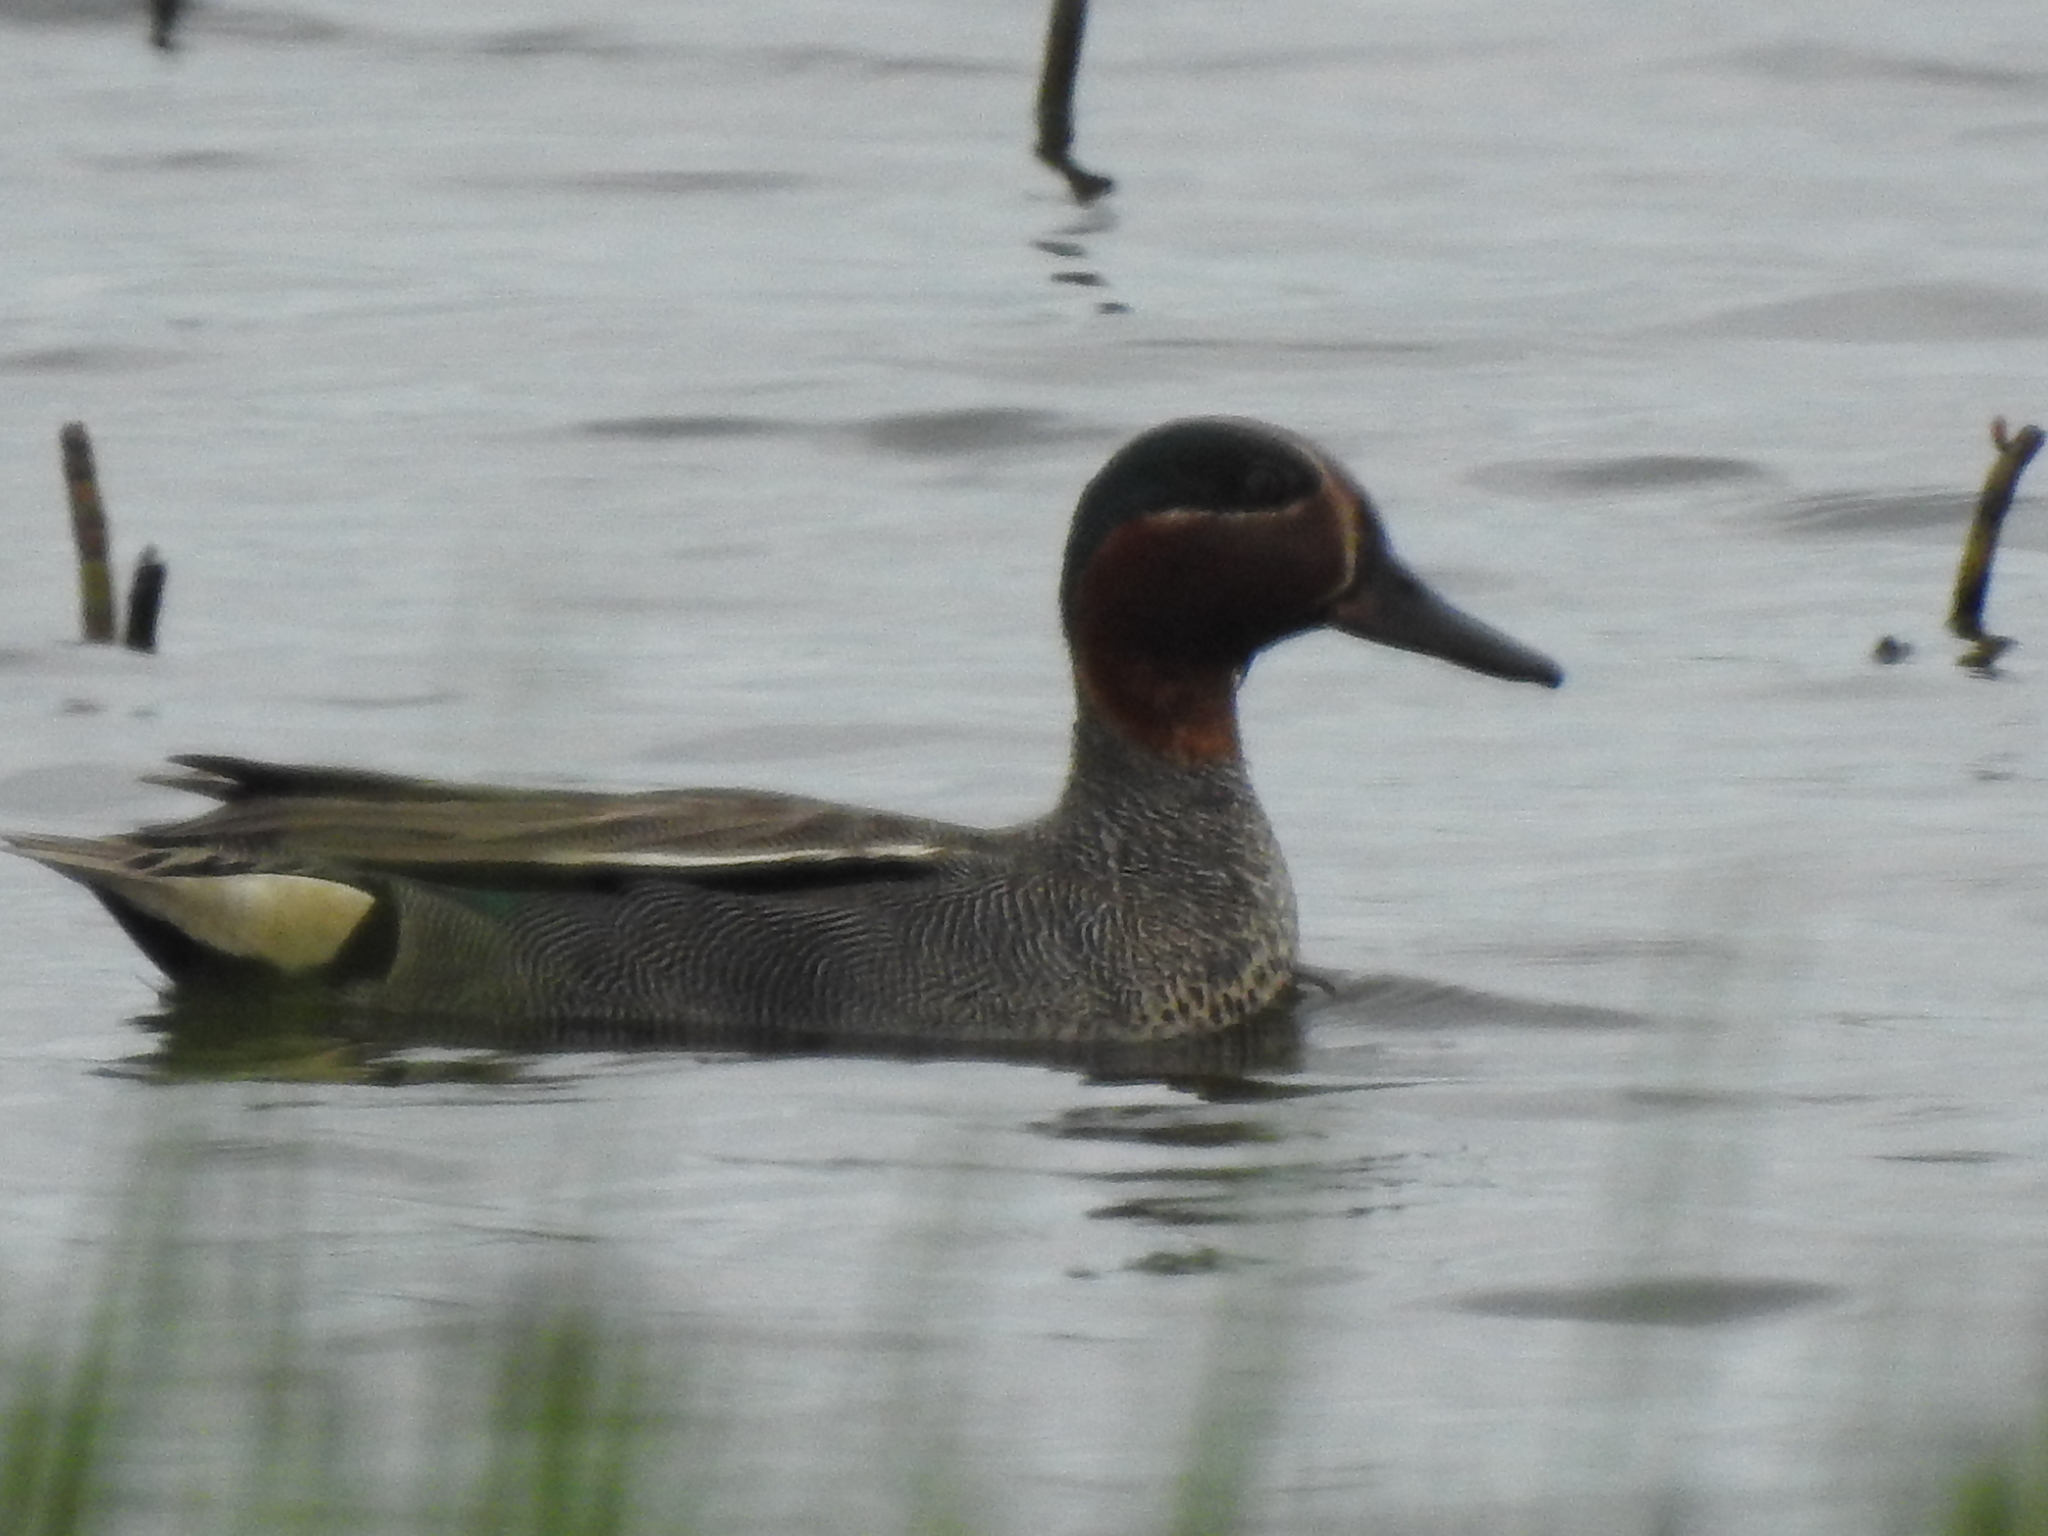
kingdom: Animalia
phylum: Chordata
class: Aves
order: Anseriformes
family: Anatidae
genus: Anas
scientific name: Anas crecca
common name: Eurasian teal
